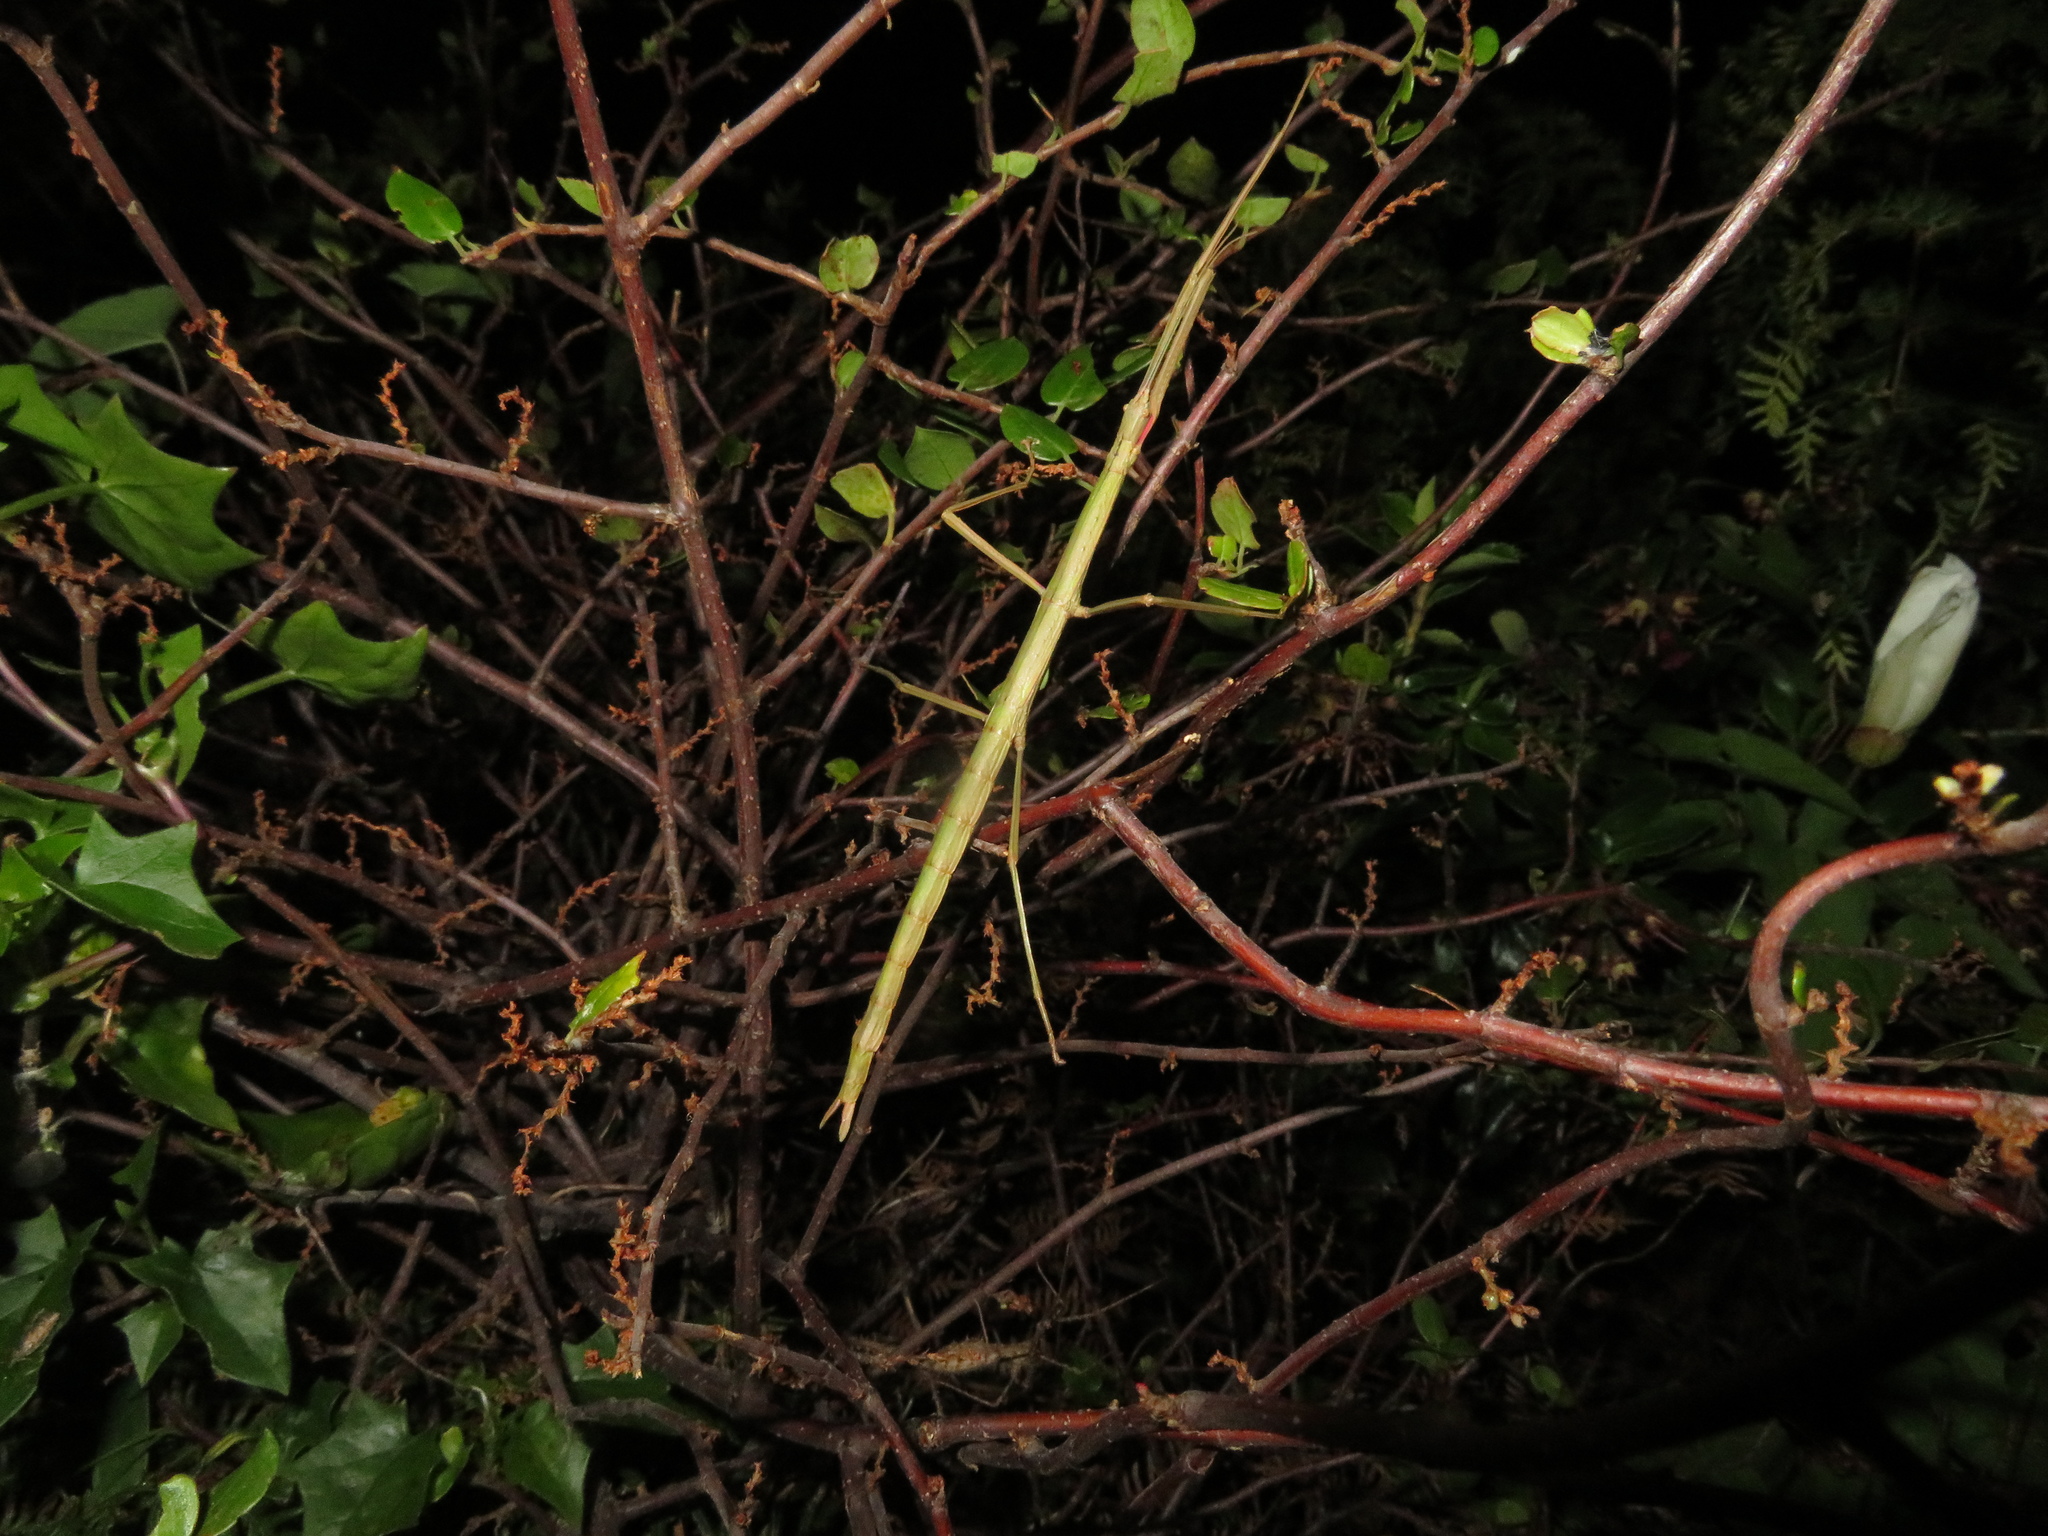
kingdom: Animalia
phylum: Arthropoda
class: Insecta
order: Phasmida
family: Phasmatidae
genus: Clitarchus
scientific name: Clitarchus hookeri
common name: Smooth stick insect
